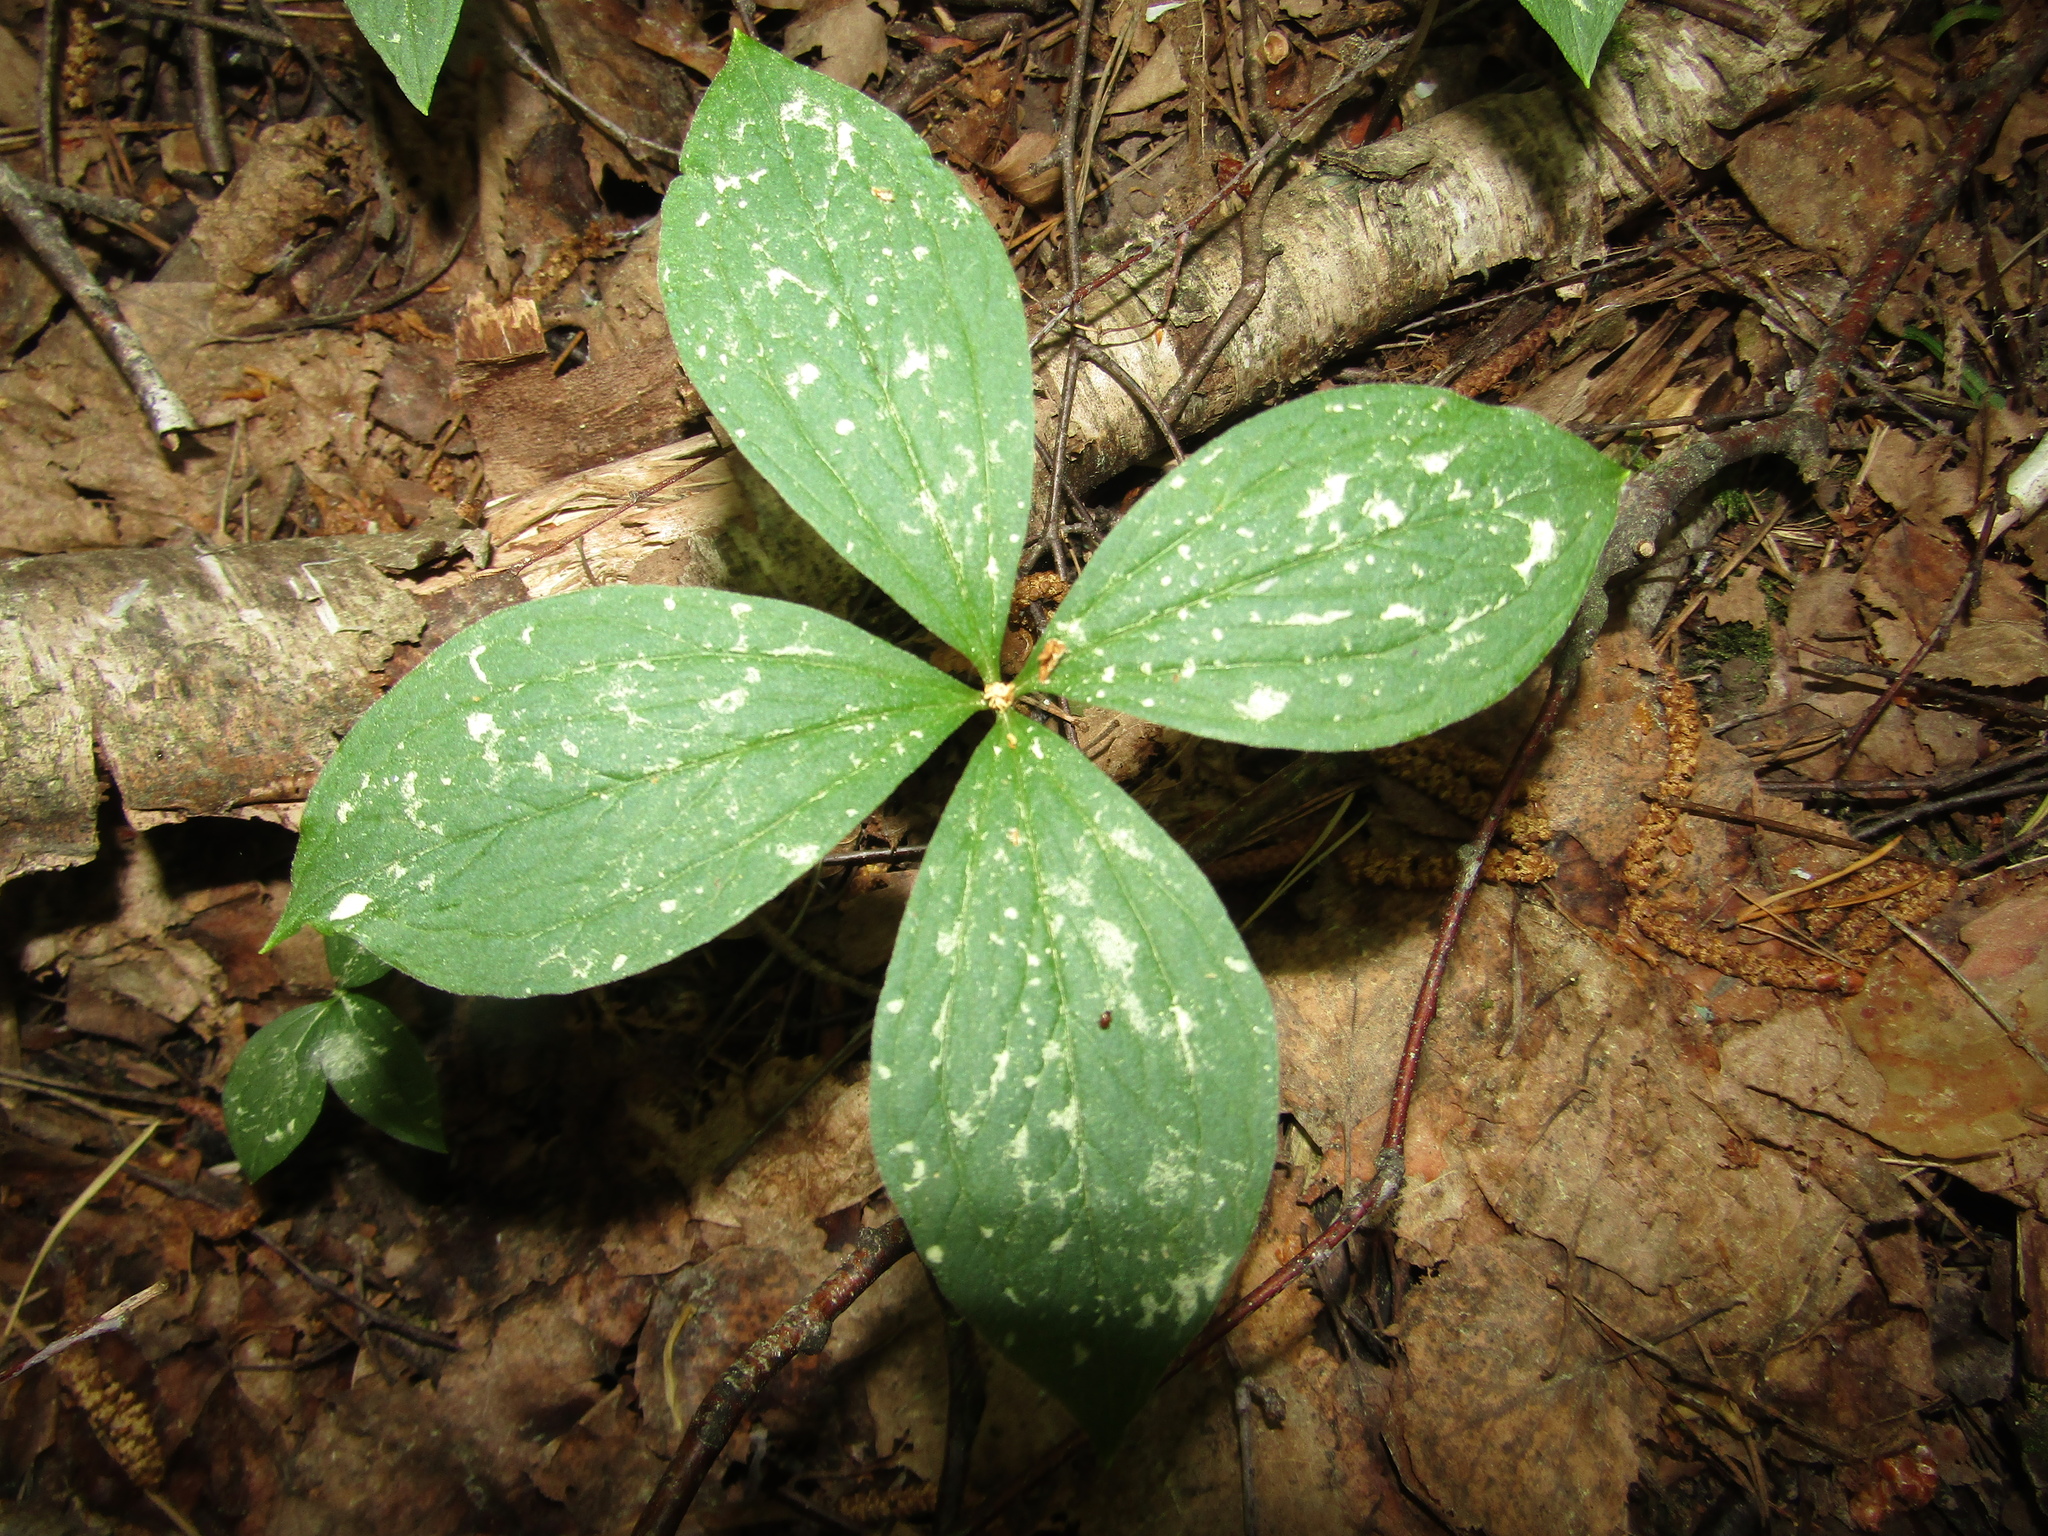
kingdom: Plantae
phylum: Tracheophyta
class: Liliopsida
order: Liliales
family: Melanthiaceae
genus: Paris
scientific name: Paris quadrifolia
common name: Herb-paris
